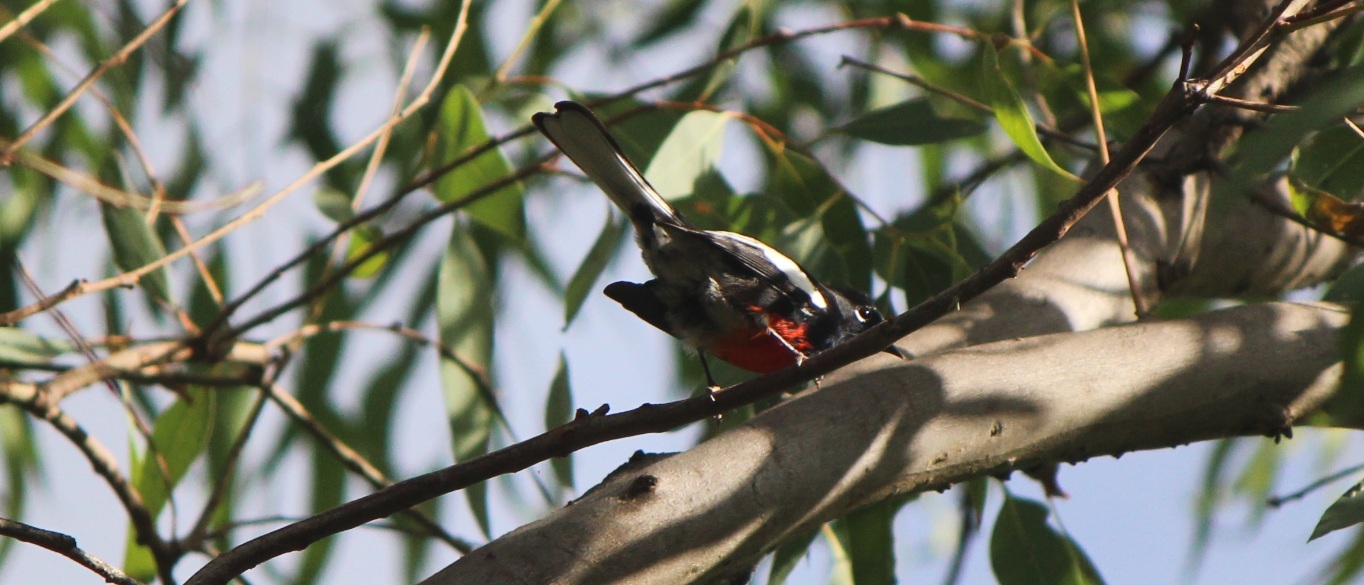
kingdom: Animalia
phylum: Chordata
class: Aves
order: Passeriformes
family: Parulidae
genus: Myioborus
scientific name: Myioborus pictus
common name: Painted whitestart
